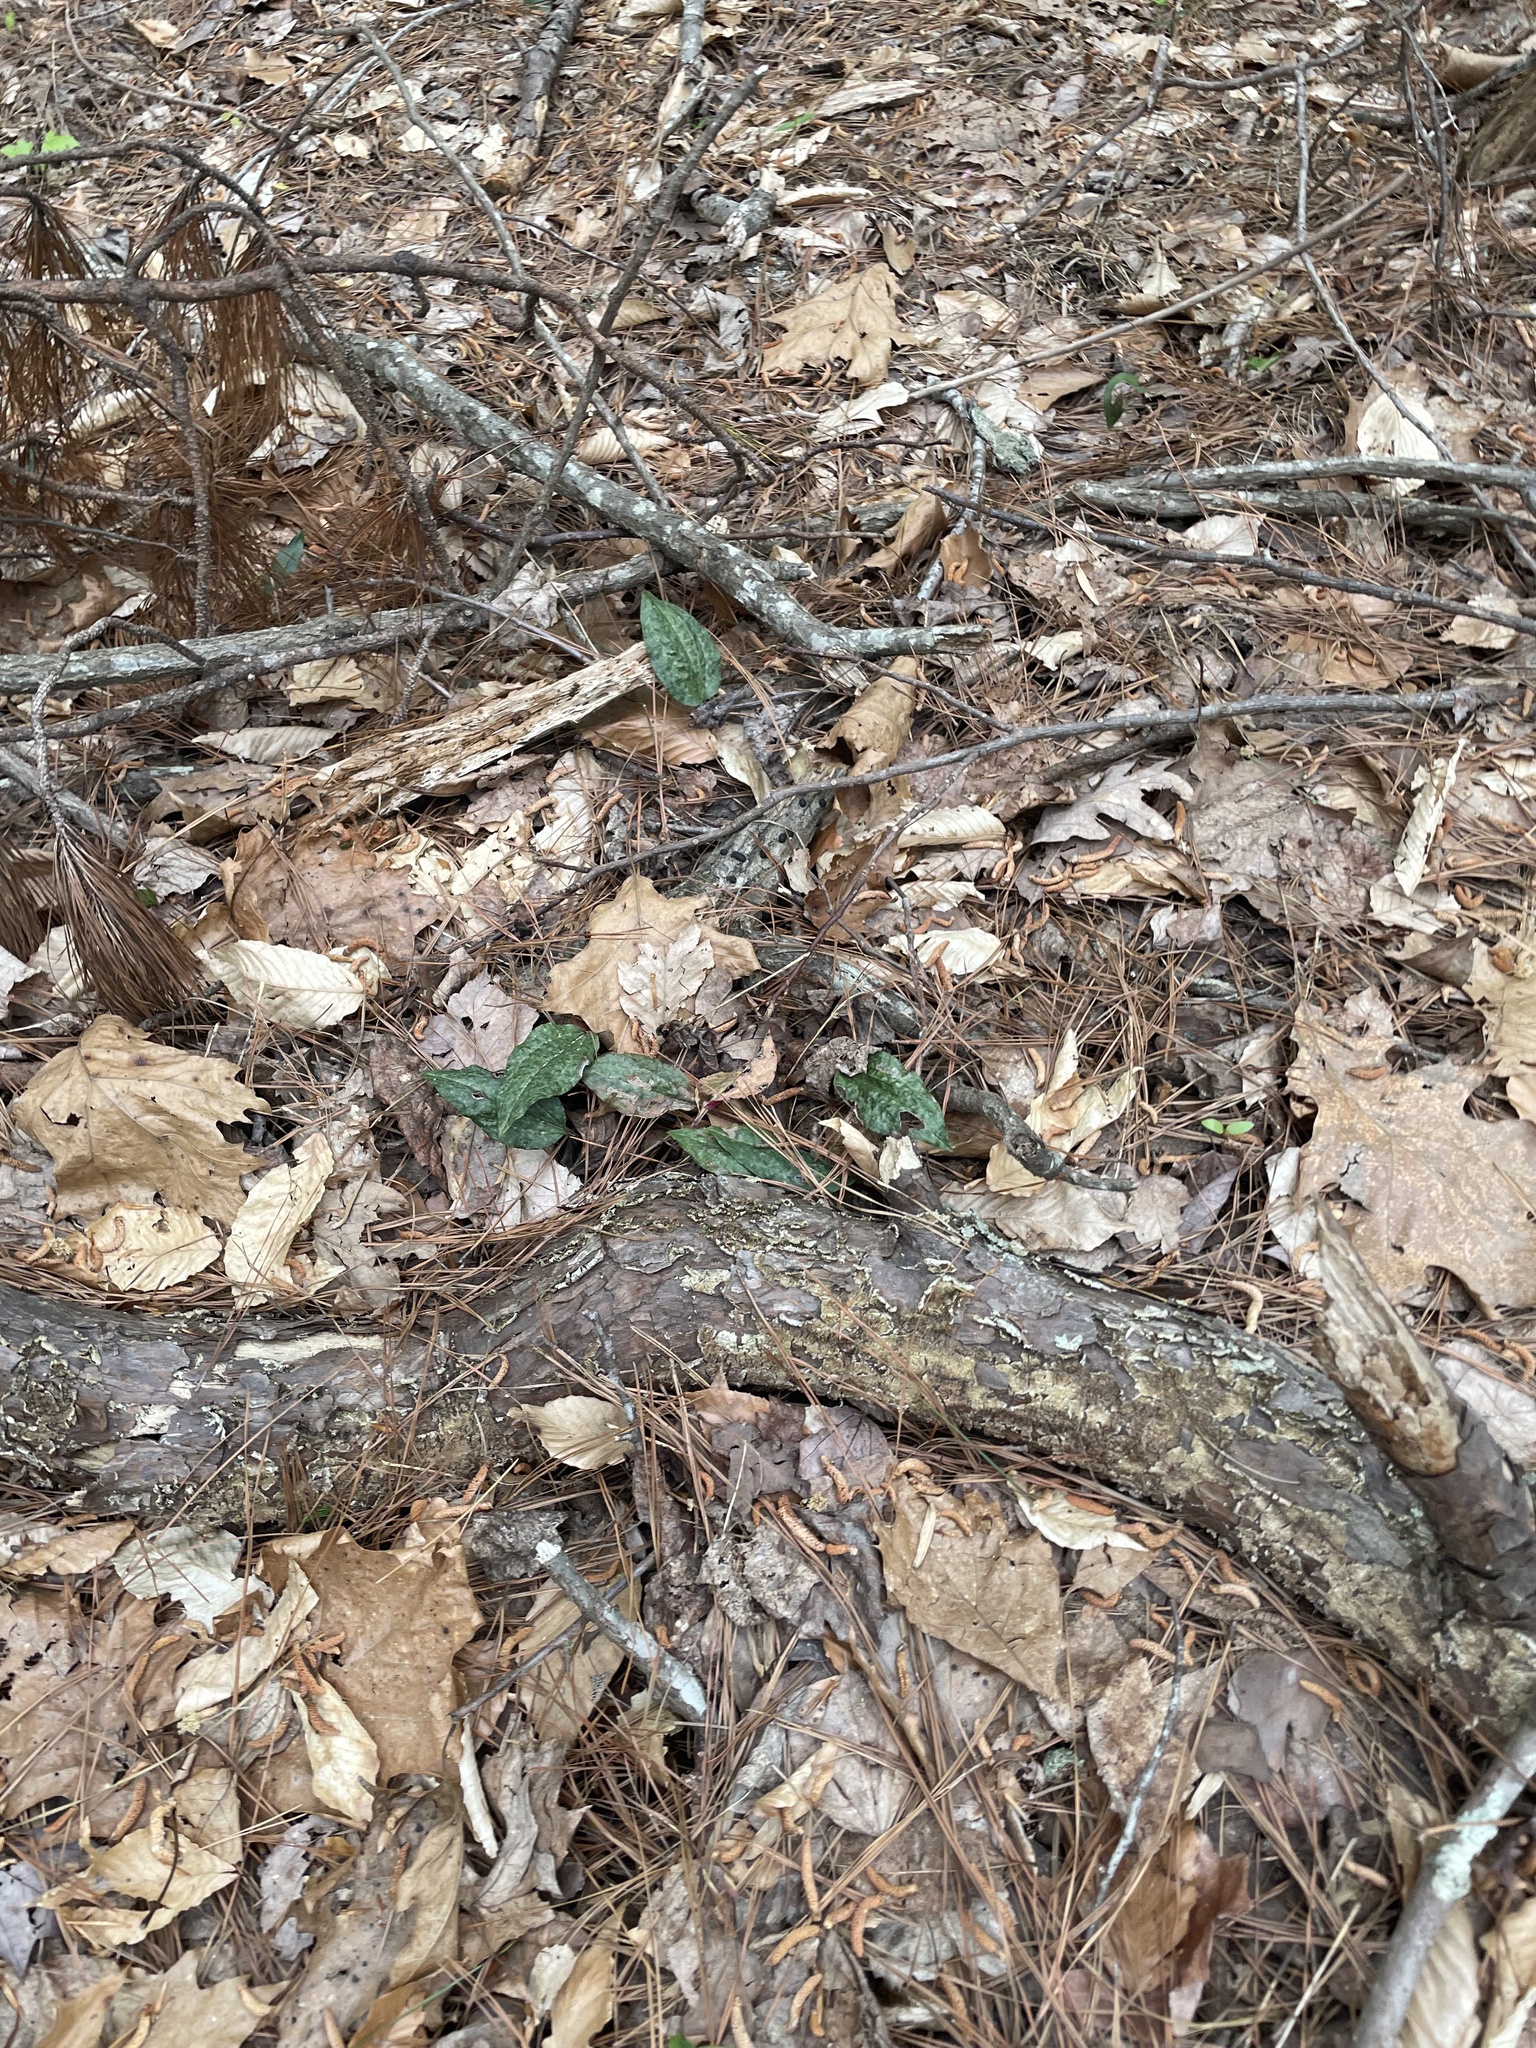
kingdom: Plantae
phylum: Tracheophyta
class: Liliopsida
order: Asparagales
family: Orchidaceae
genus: Tipularia
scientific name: Tipularia discolor
